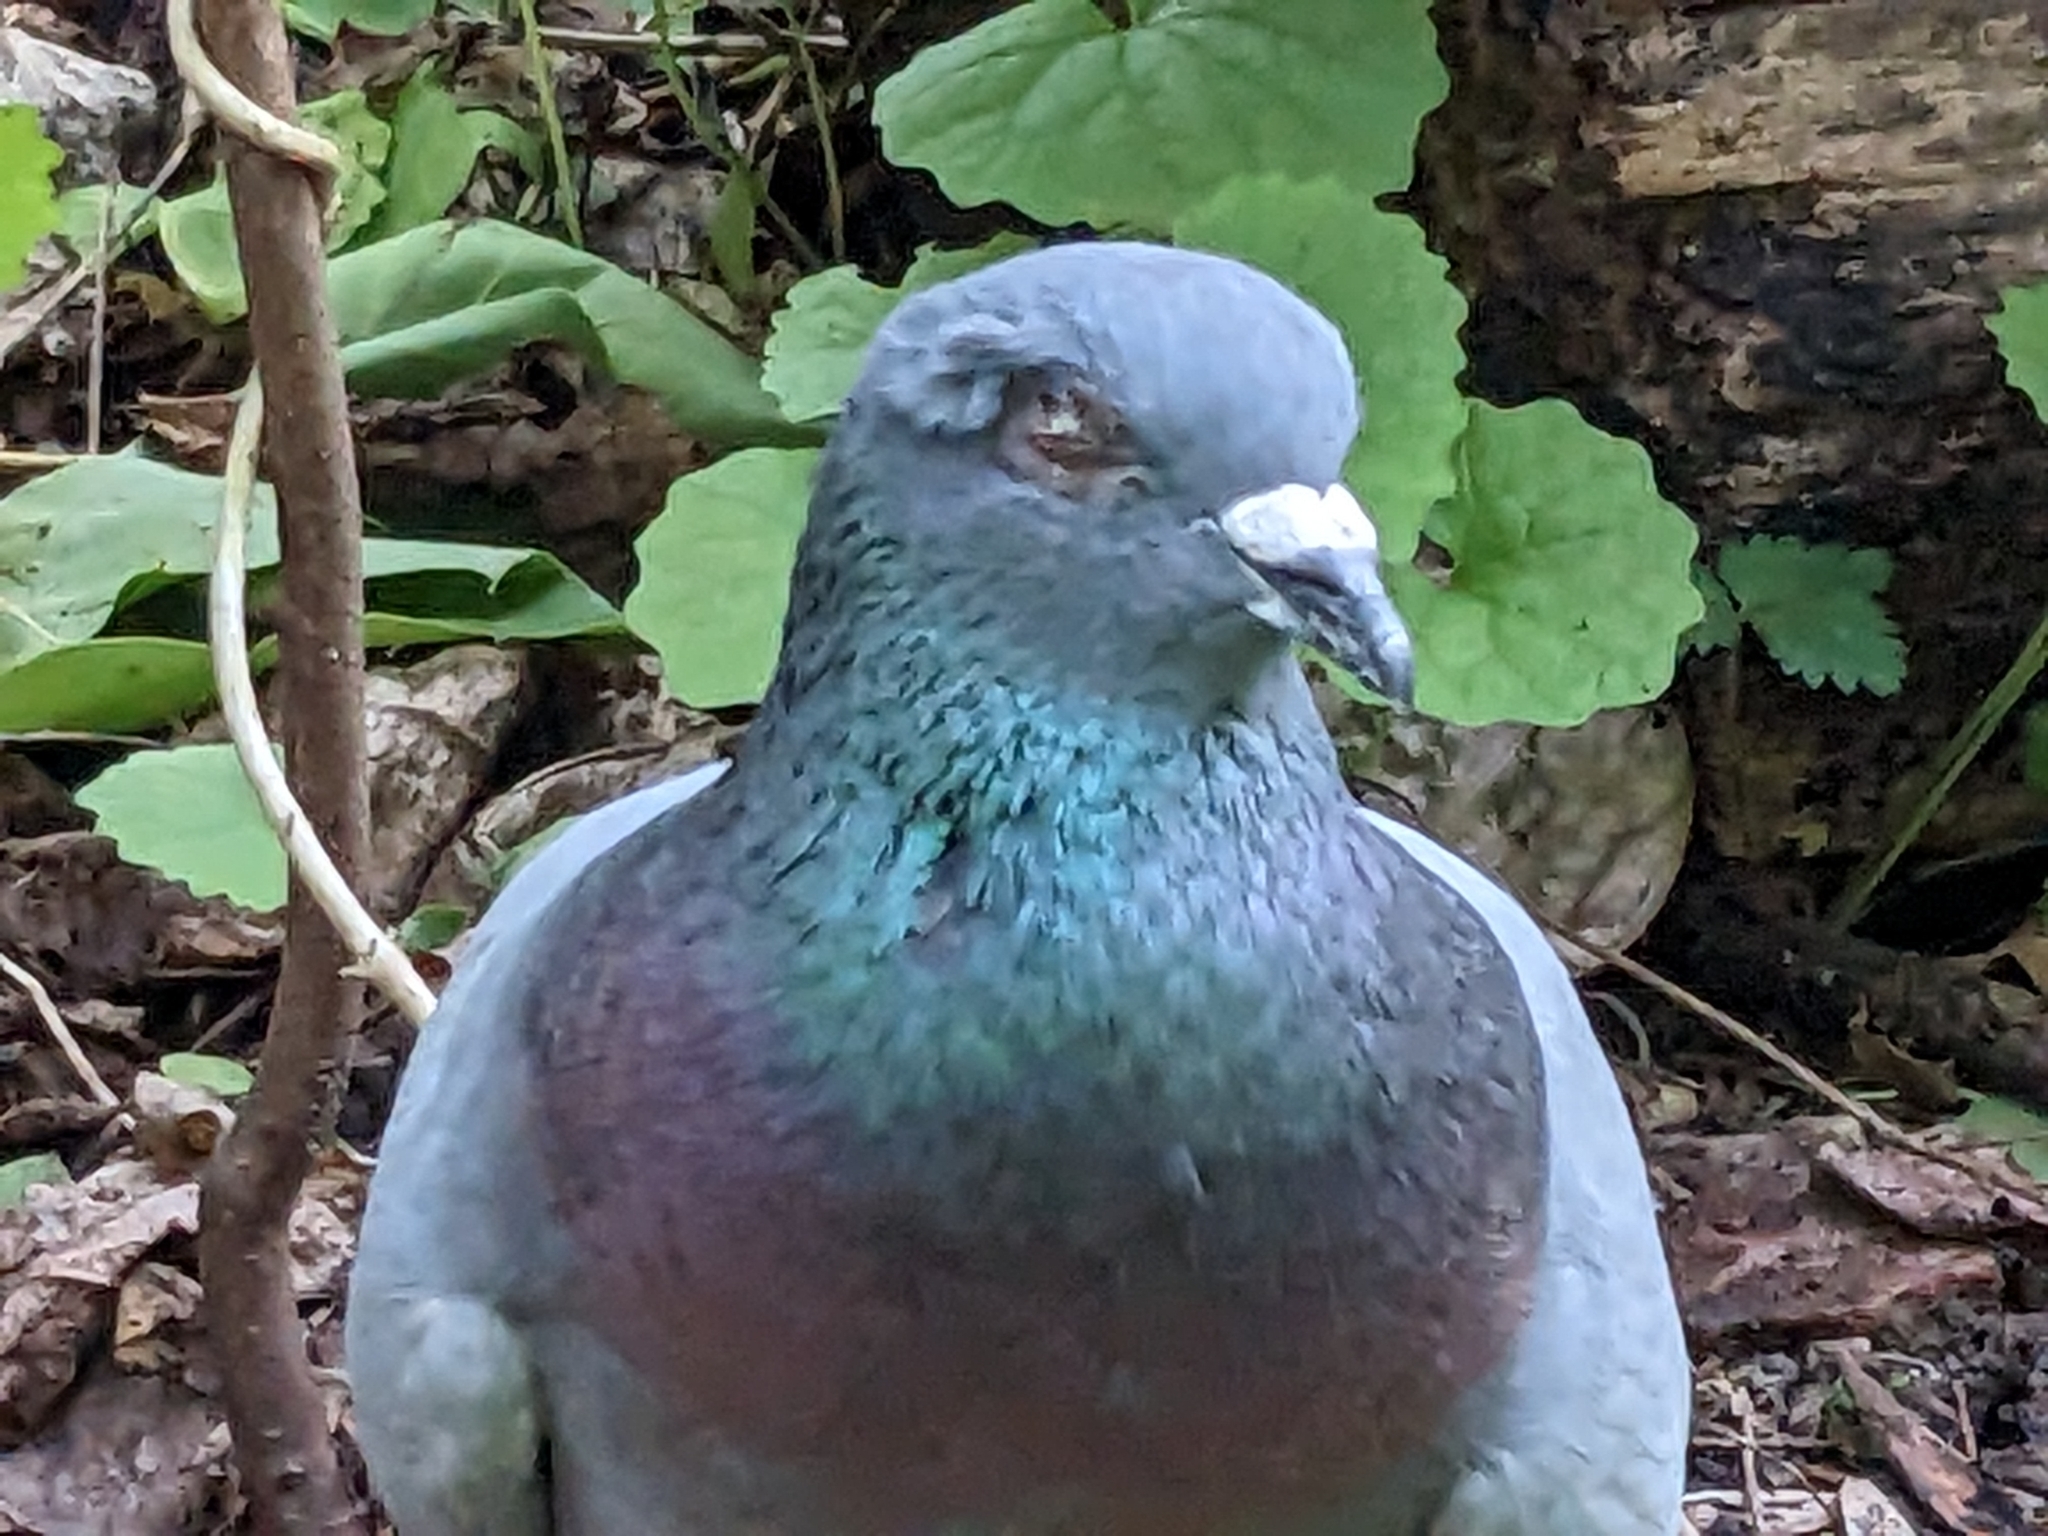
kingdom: Animalia
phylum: Chordata
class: Aves
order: Columbiformes
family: Columbidae
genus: Columba
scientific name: Columba livia
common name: Rock pigeon
